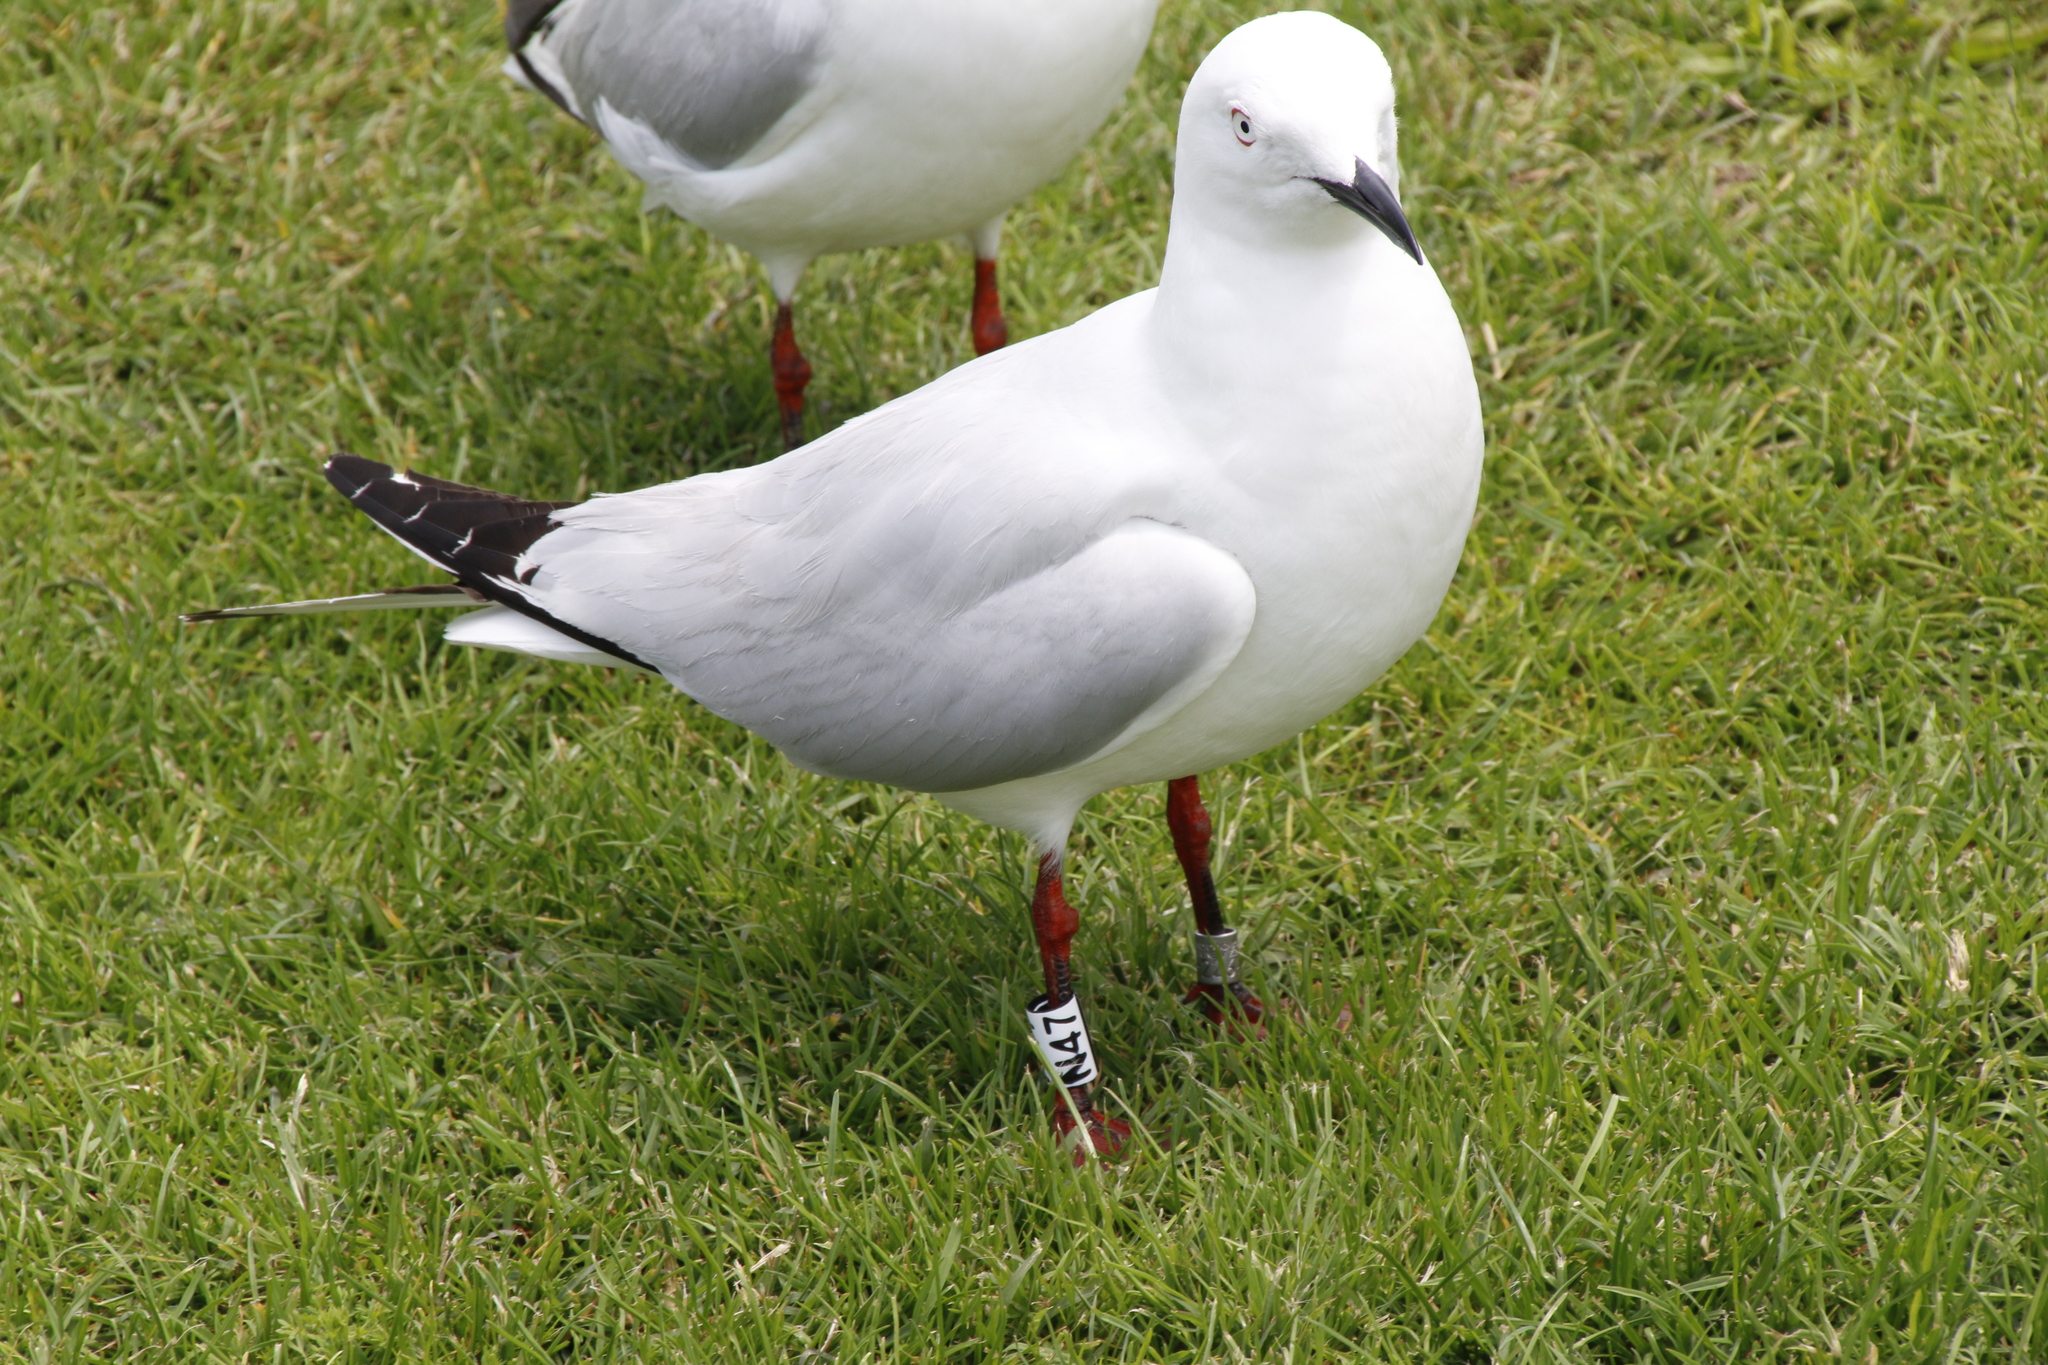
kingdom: Animalia
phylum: Chordata
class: Aves
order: Charadriiformes
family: Laridae
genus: Chroicocephalus
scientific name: Chroicocephalus bulleri
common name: Black-billed gull
